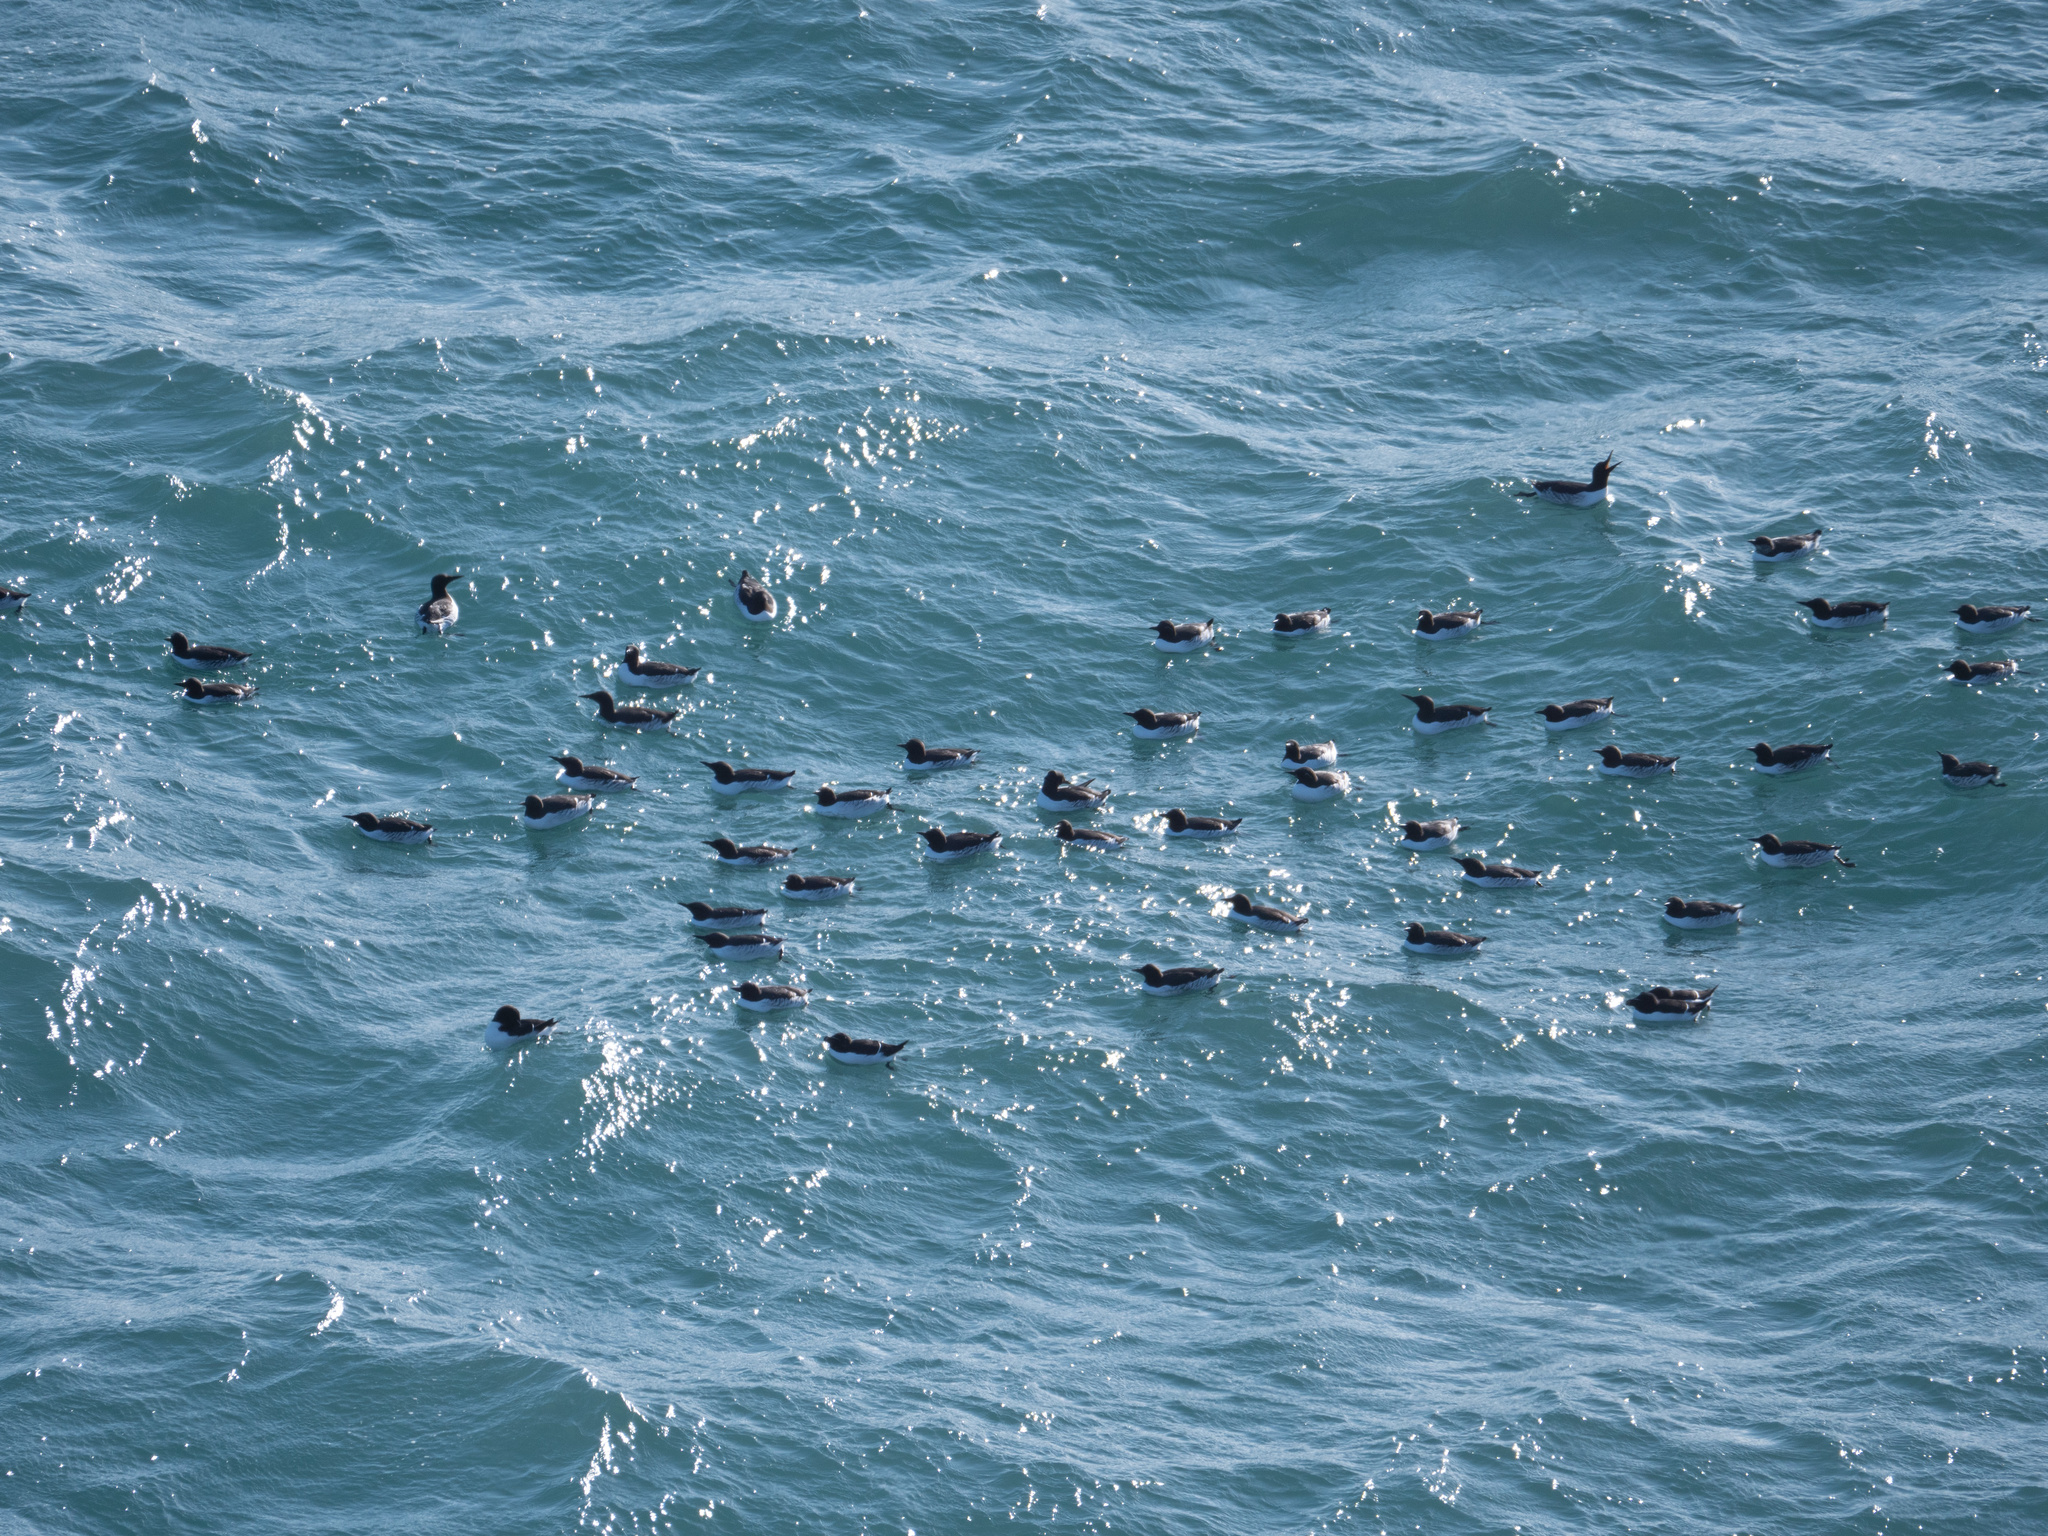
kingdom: Animalia
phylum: Chordata
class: Aves
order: Charadriiformes
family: Alcidae
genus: Uria
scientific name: Uria aalge
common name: Common murre
